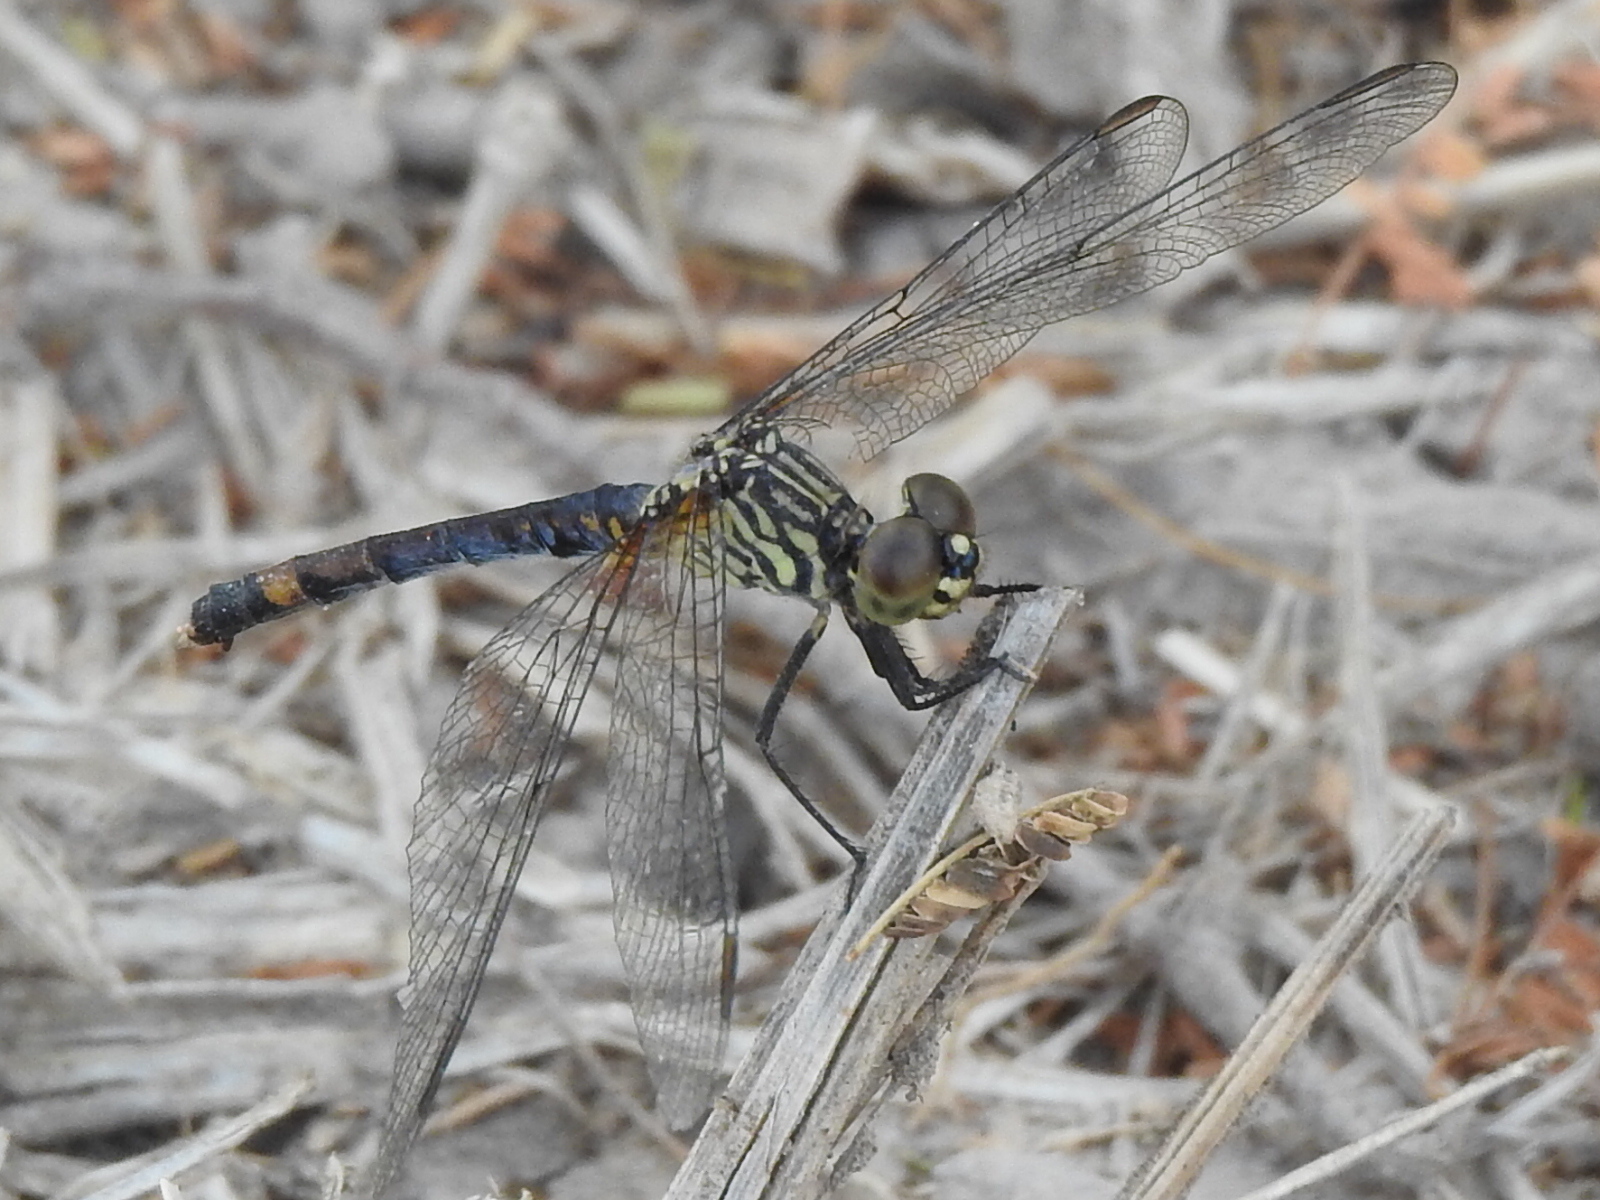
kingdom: Animalia
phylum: Arthropoda
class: Insecta
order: Odonata
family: Libellulidae
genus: Erythrodiplax
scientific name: Erythrodiplax berenice
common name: Seaside dragonlet
